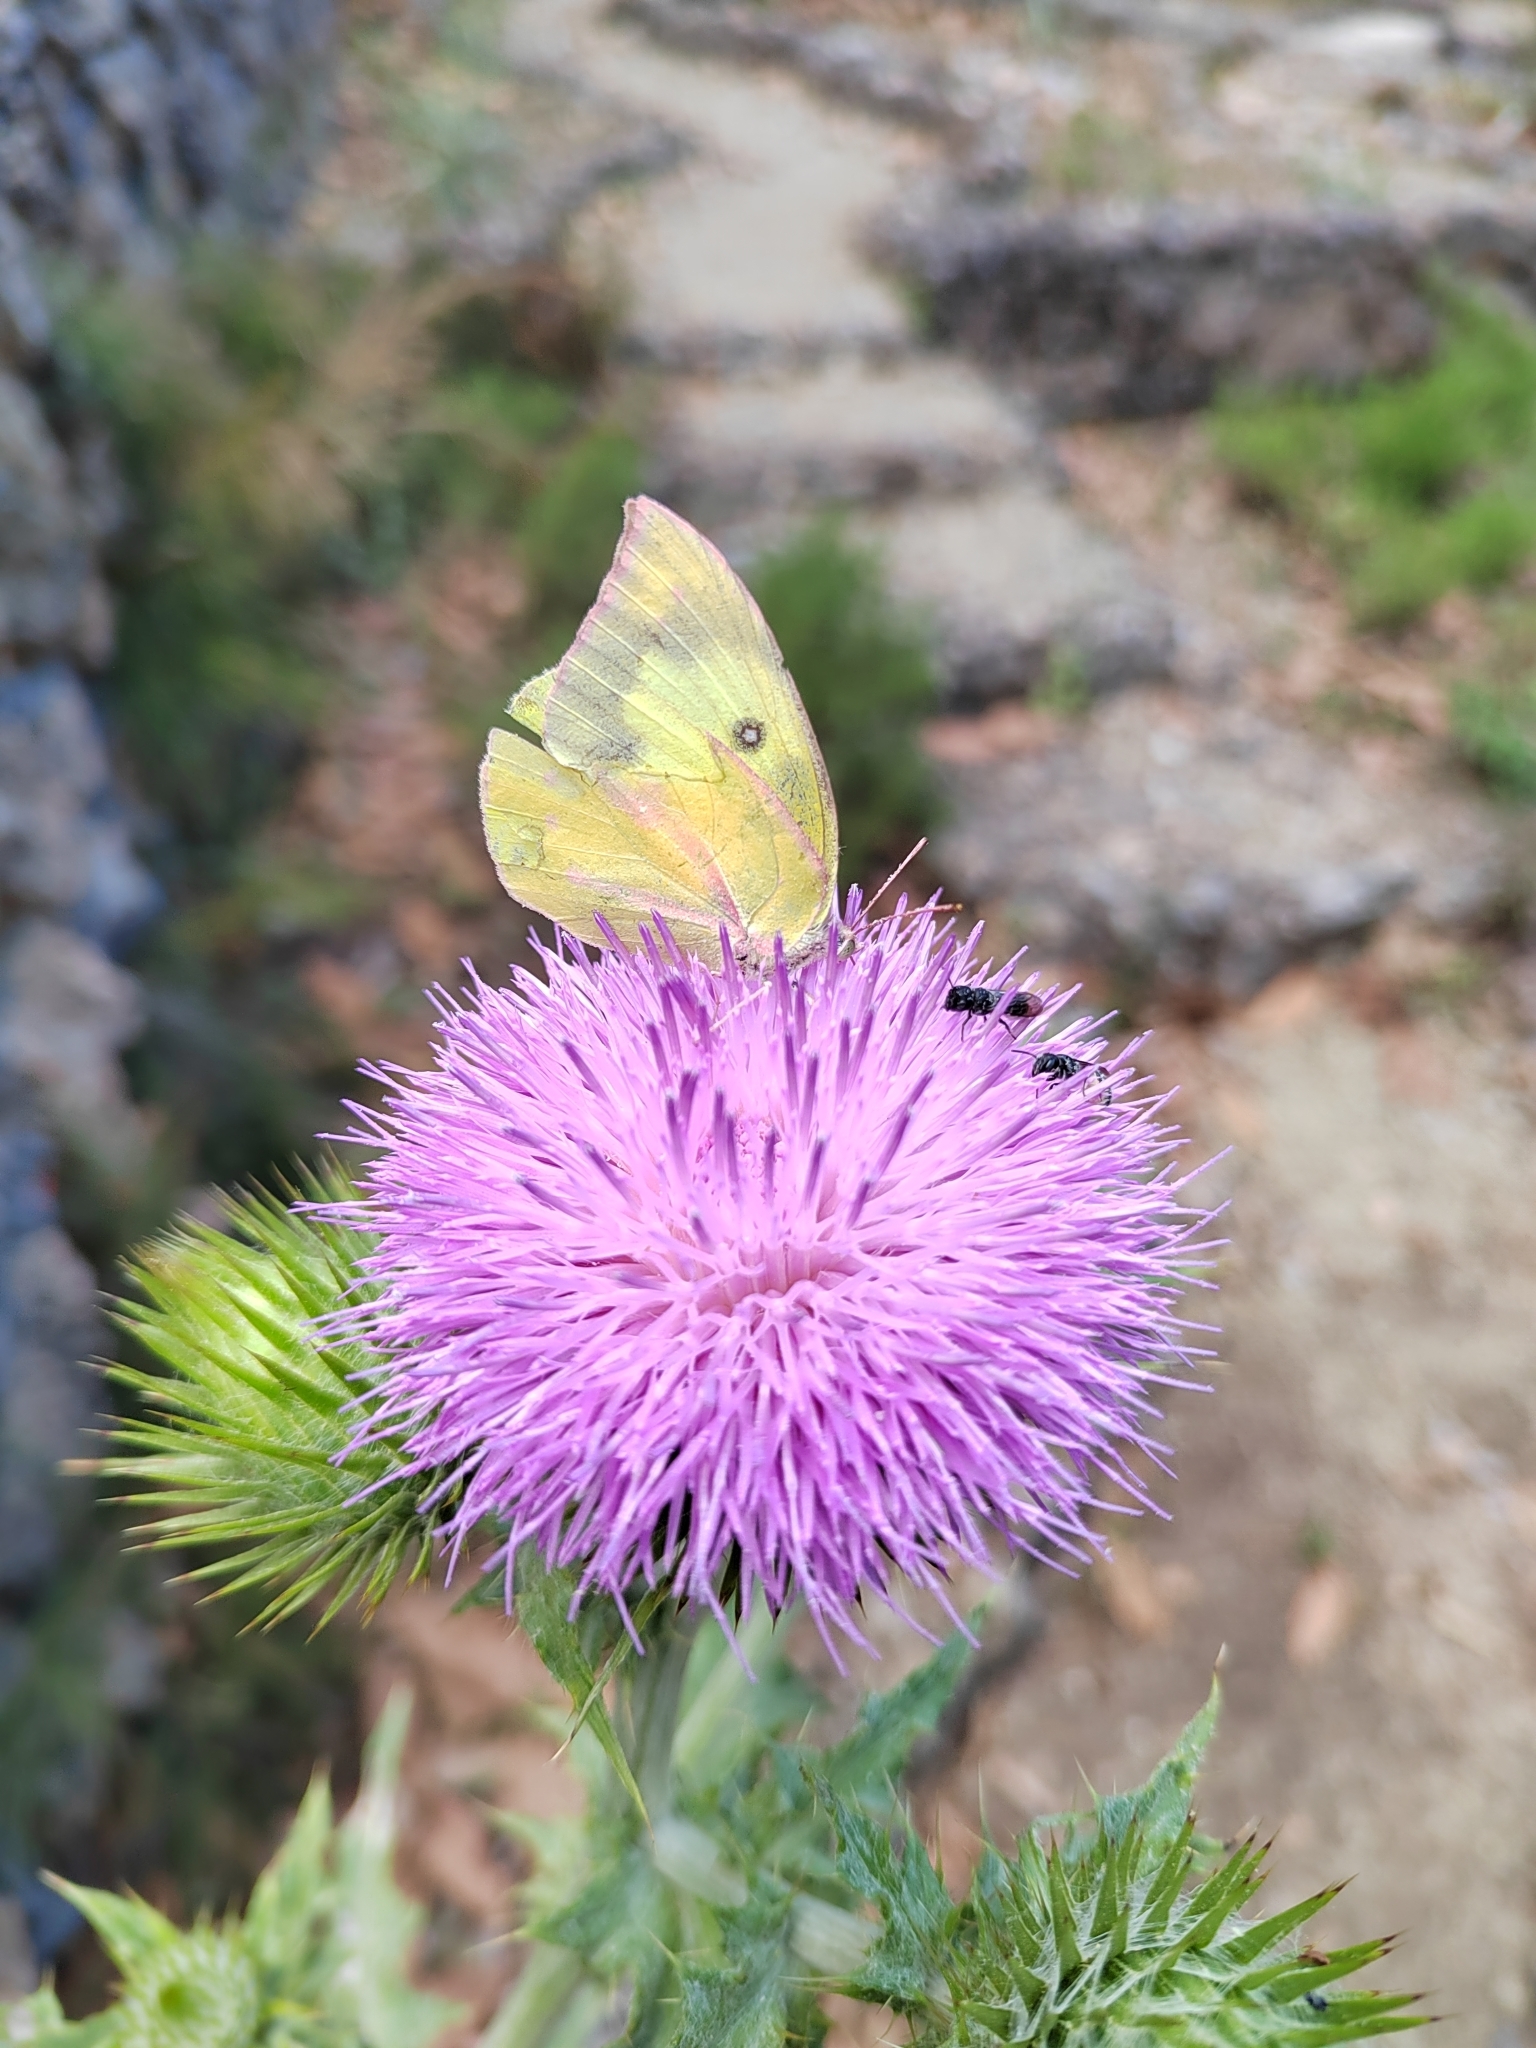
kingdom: Animalia
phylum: Arthropoda
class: Insecta
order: Lepidoptera
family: Pieridae
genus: Zerene
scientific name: Zerene cesonia
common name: Southern dogface
